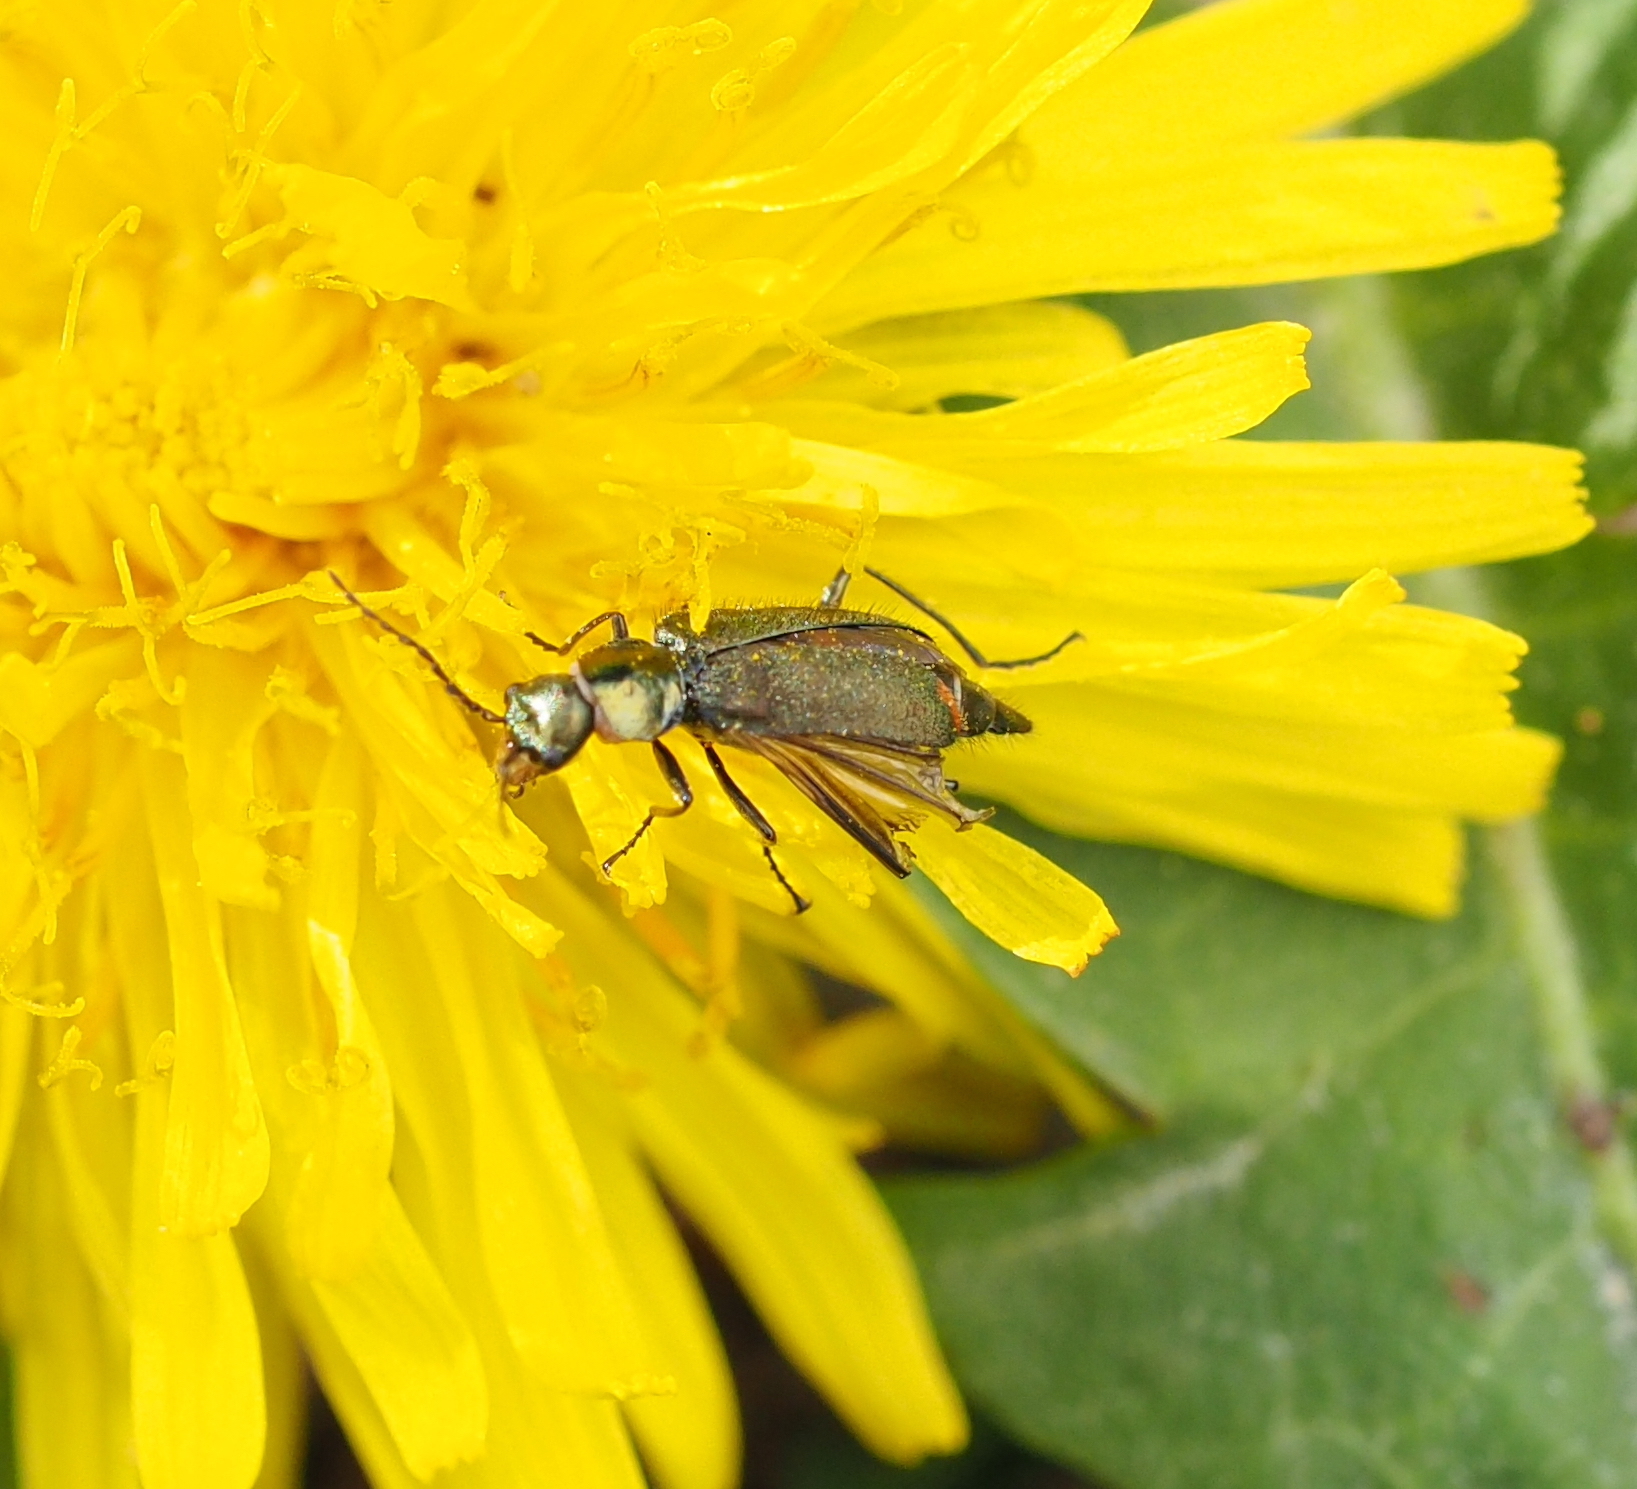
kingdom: Animalia
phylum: Arthropoda
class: Insecta
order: Coleoptera
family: Melyridae
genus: Malachius
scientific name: Malachius bipustulatus
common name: Malachite beetle
